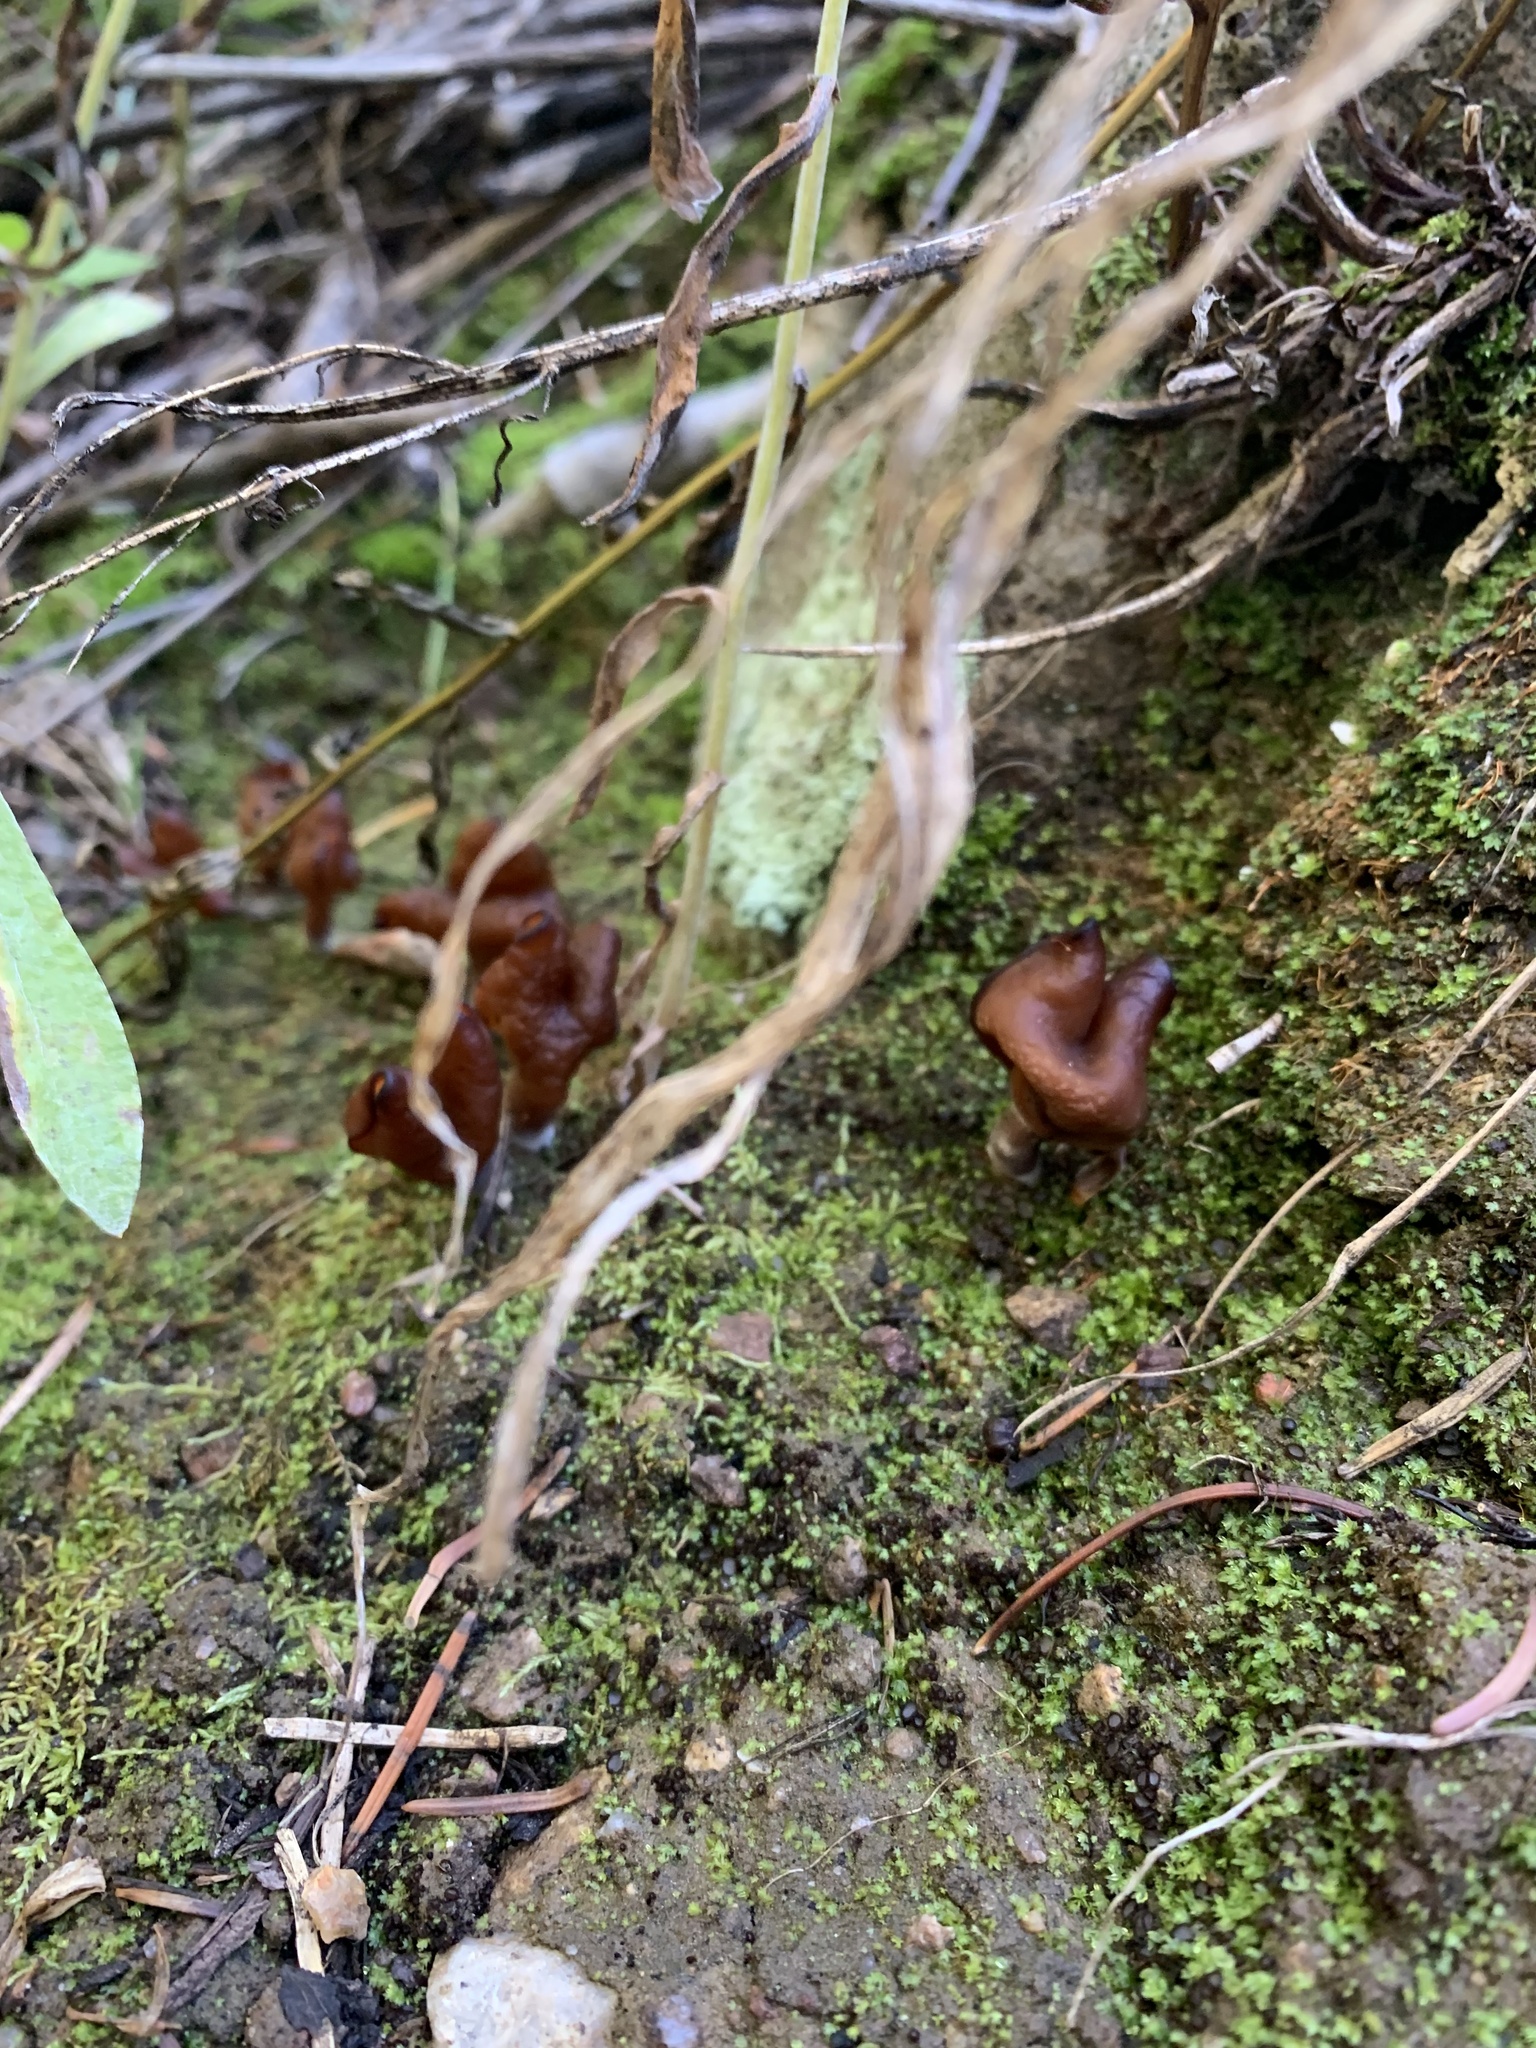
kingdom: Fungi
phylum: Ascomycota
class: Pezizomycetes
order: Pezizales
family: Discinaceae
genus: Gyromitra
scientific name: Gyromitra infula
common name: Pouched false morel
